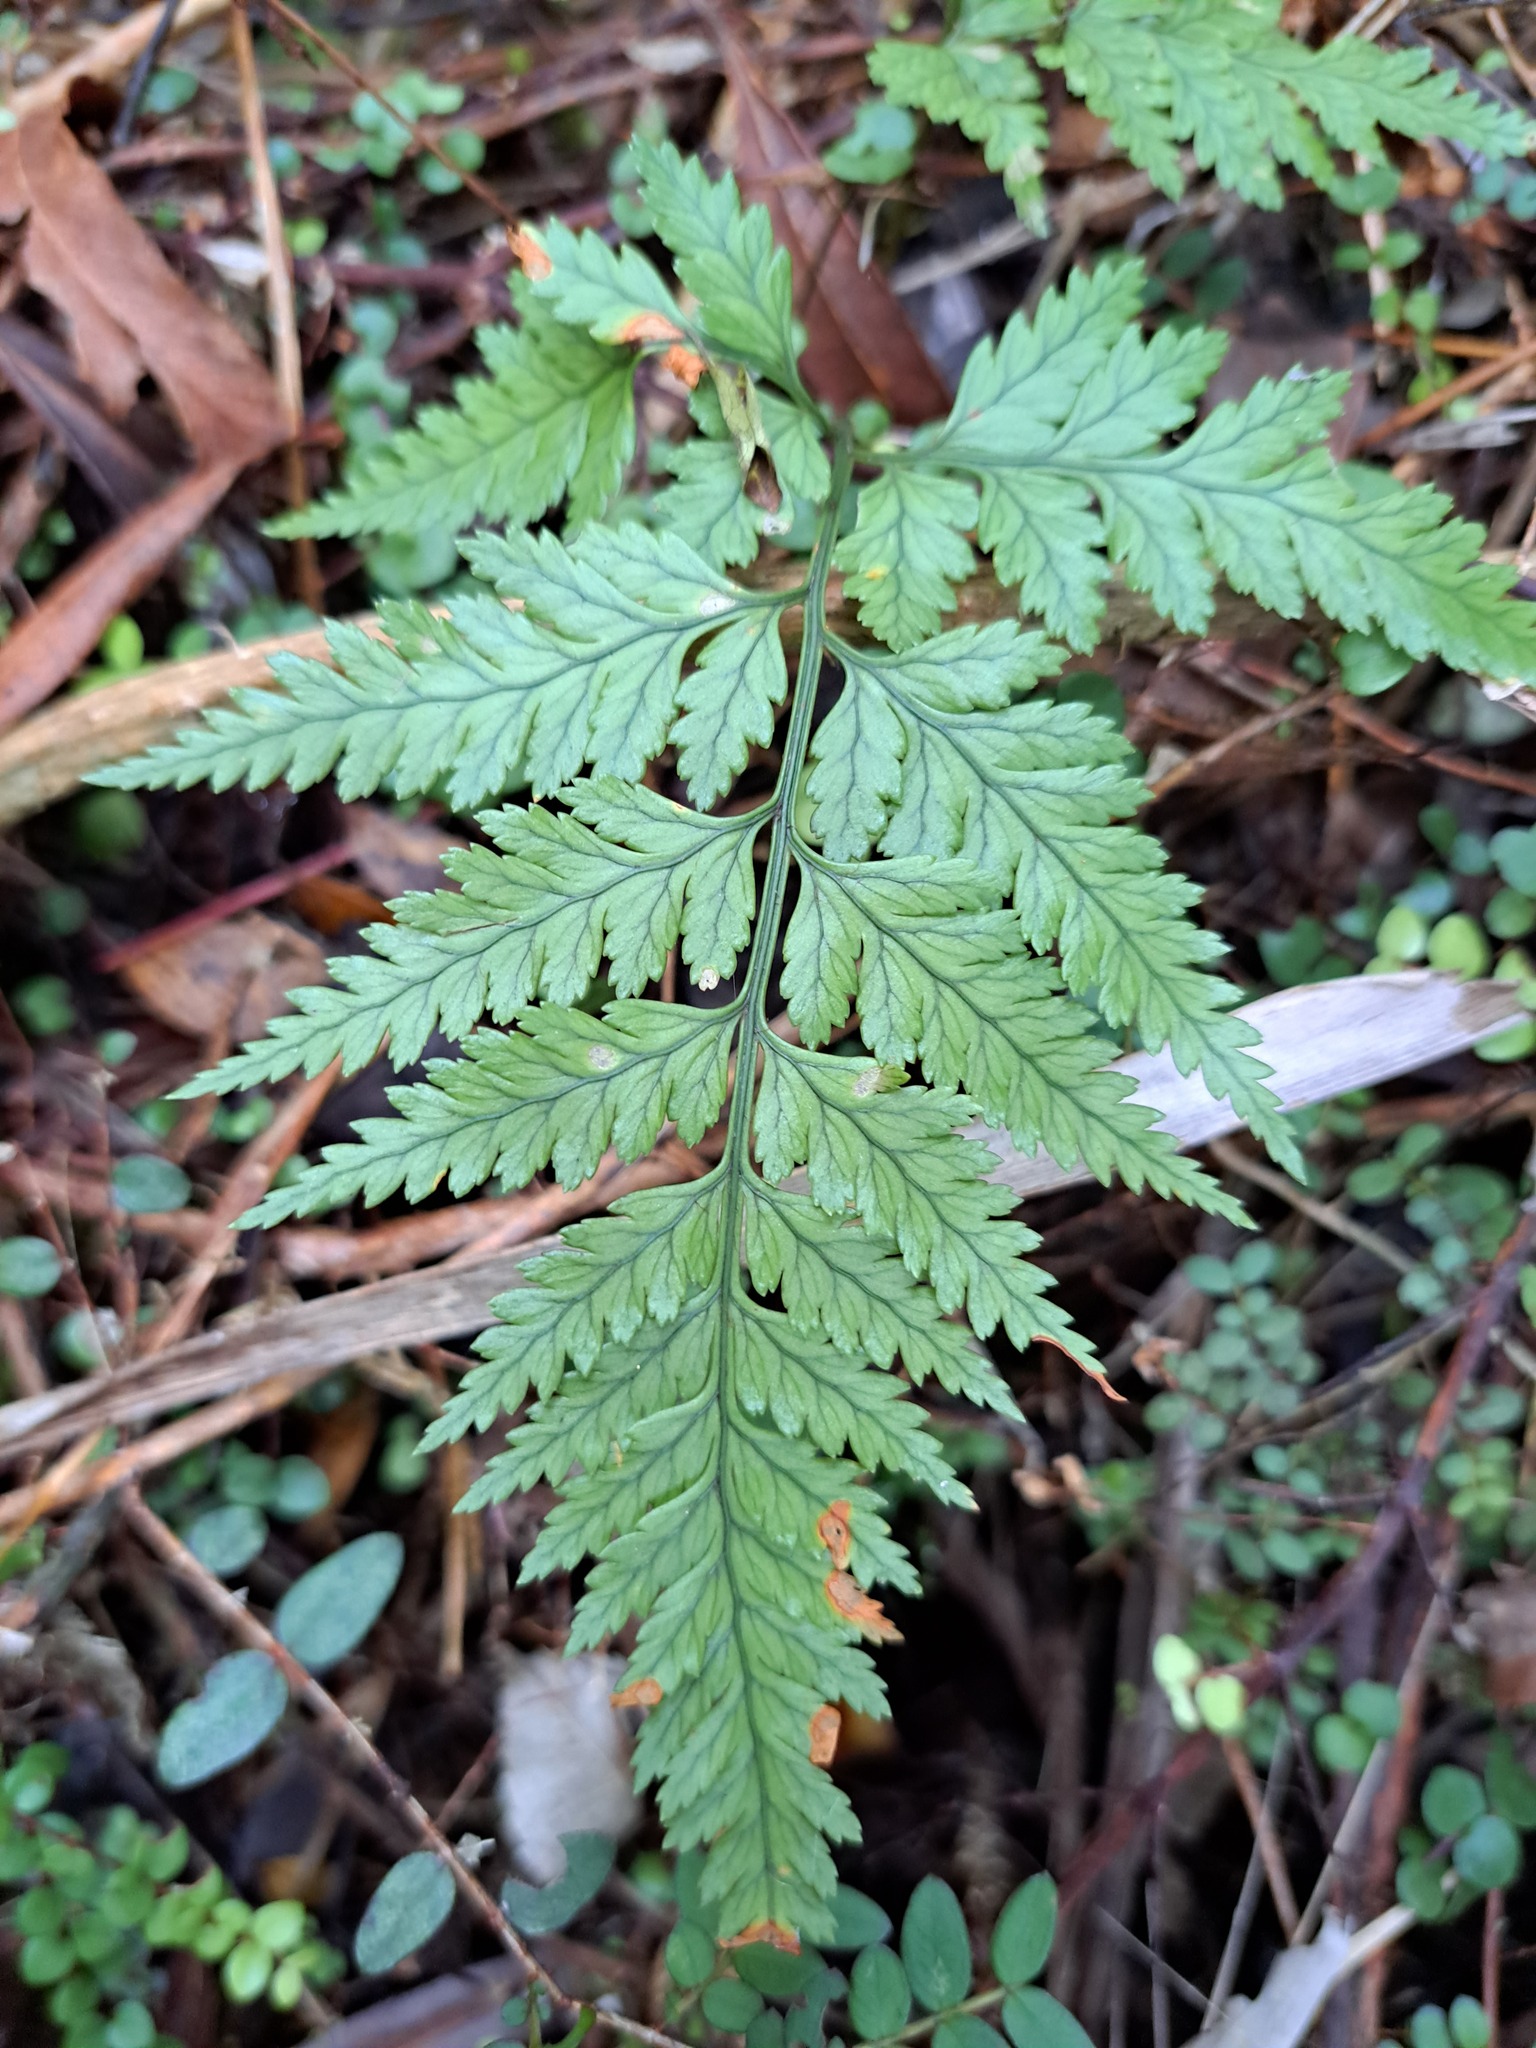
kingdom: Plantae
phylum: Tracheophyta
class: Polypodiopsida
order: Polypodiales
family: Dryopteridaceae
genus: Rumohra
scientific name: Rumohra adiantiformis
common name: Leather fern
